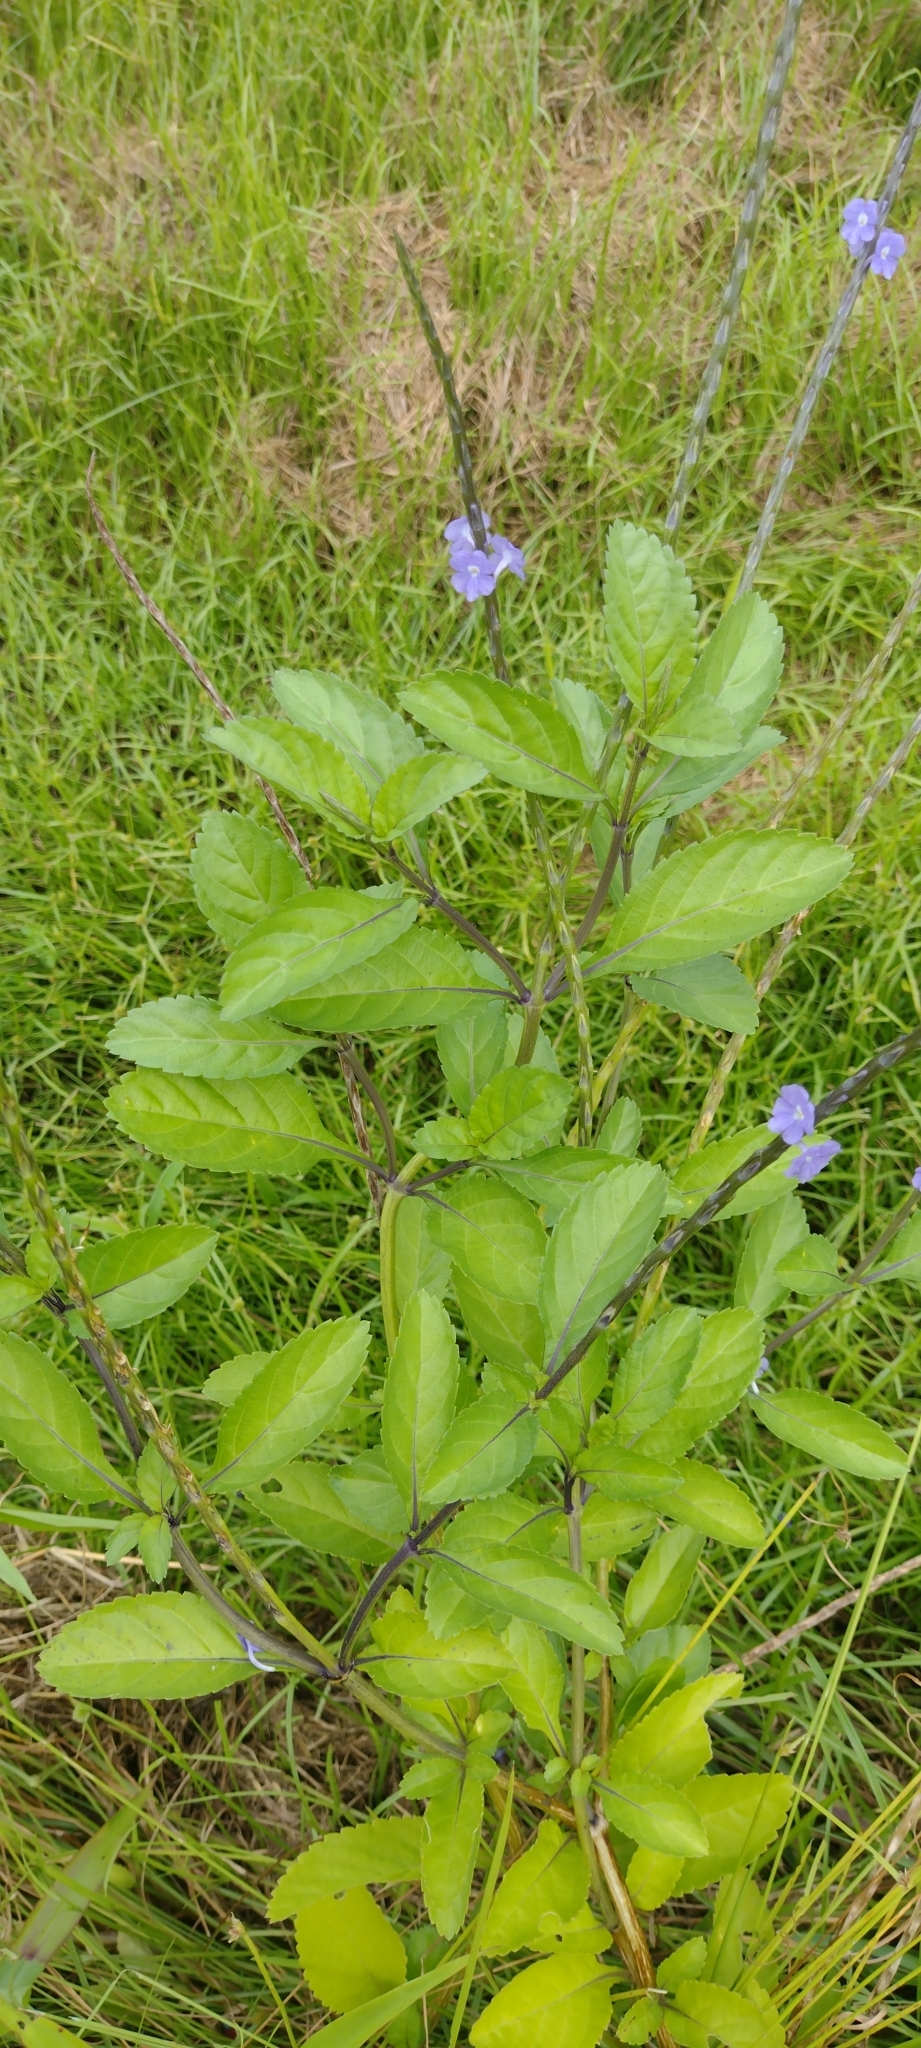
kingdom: Plantae
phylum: Tracheophyta
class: Magnoliopsida
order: Lamiales
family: Verbenaceae
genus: Stachytarpheta
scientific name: Stachytarpheta jamaicensis
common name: Light-blue snakeweed
